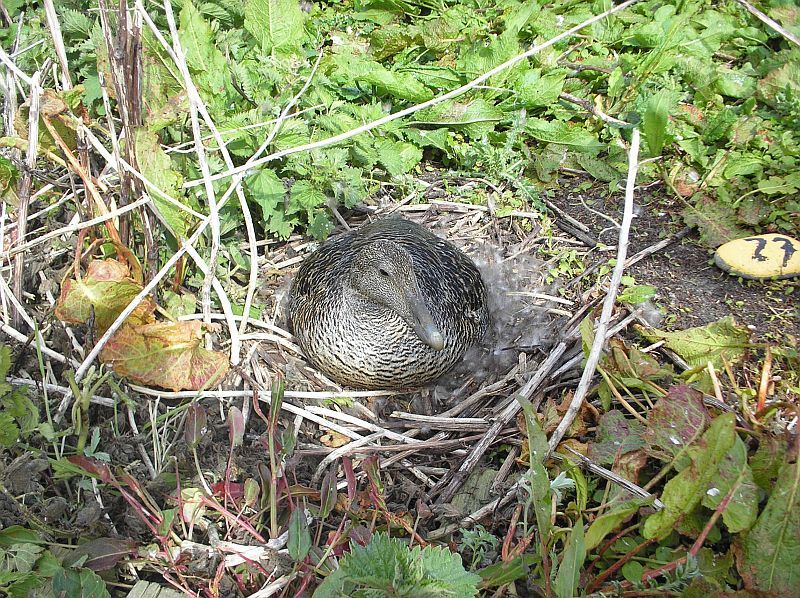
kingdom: Animalia
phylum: Chordata
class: Aves
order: Anseriformes
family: Anatidae
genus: Somateria
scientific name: Somateria mollissima
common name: Common eider
